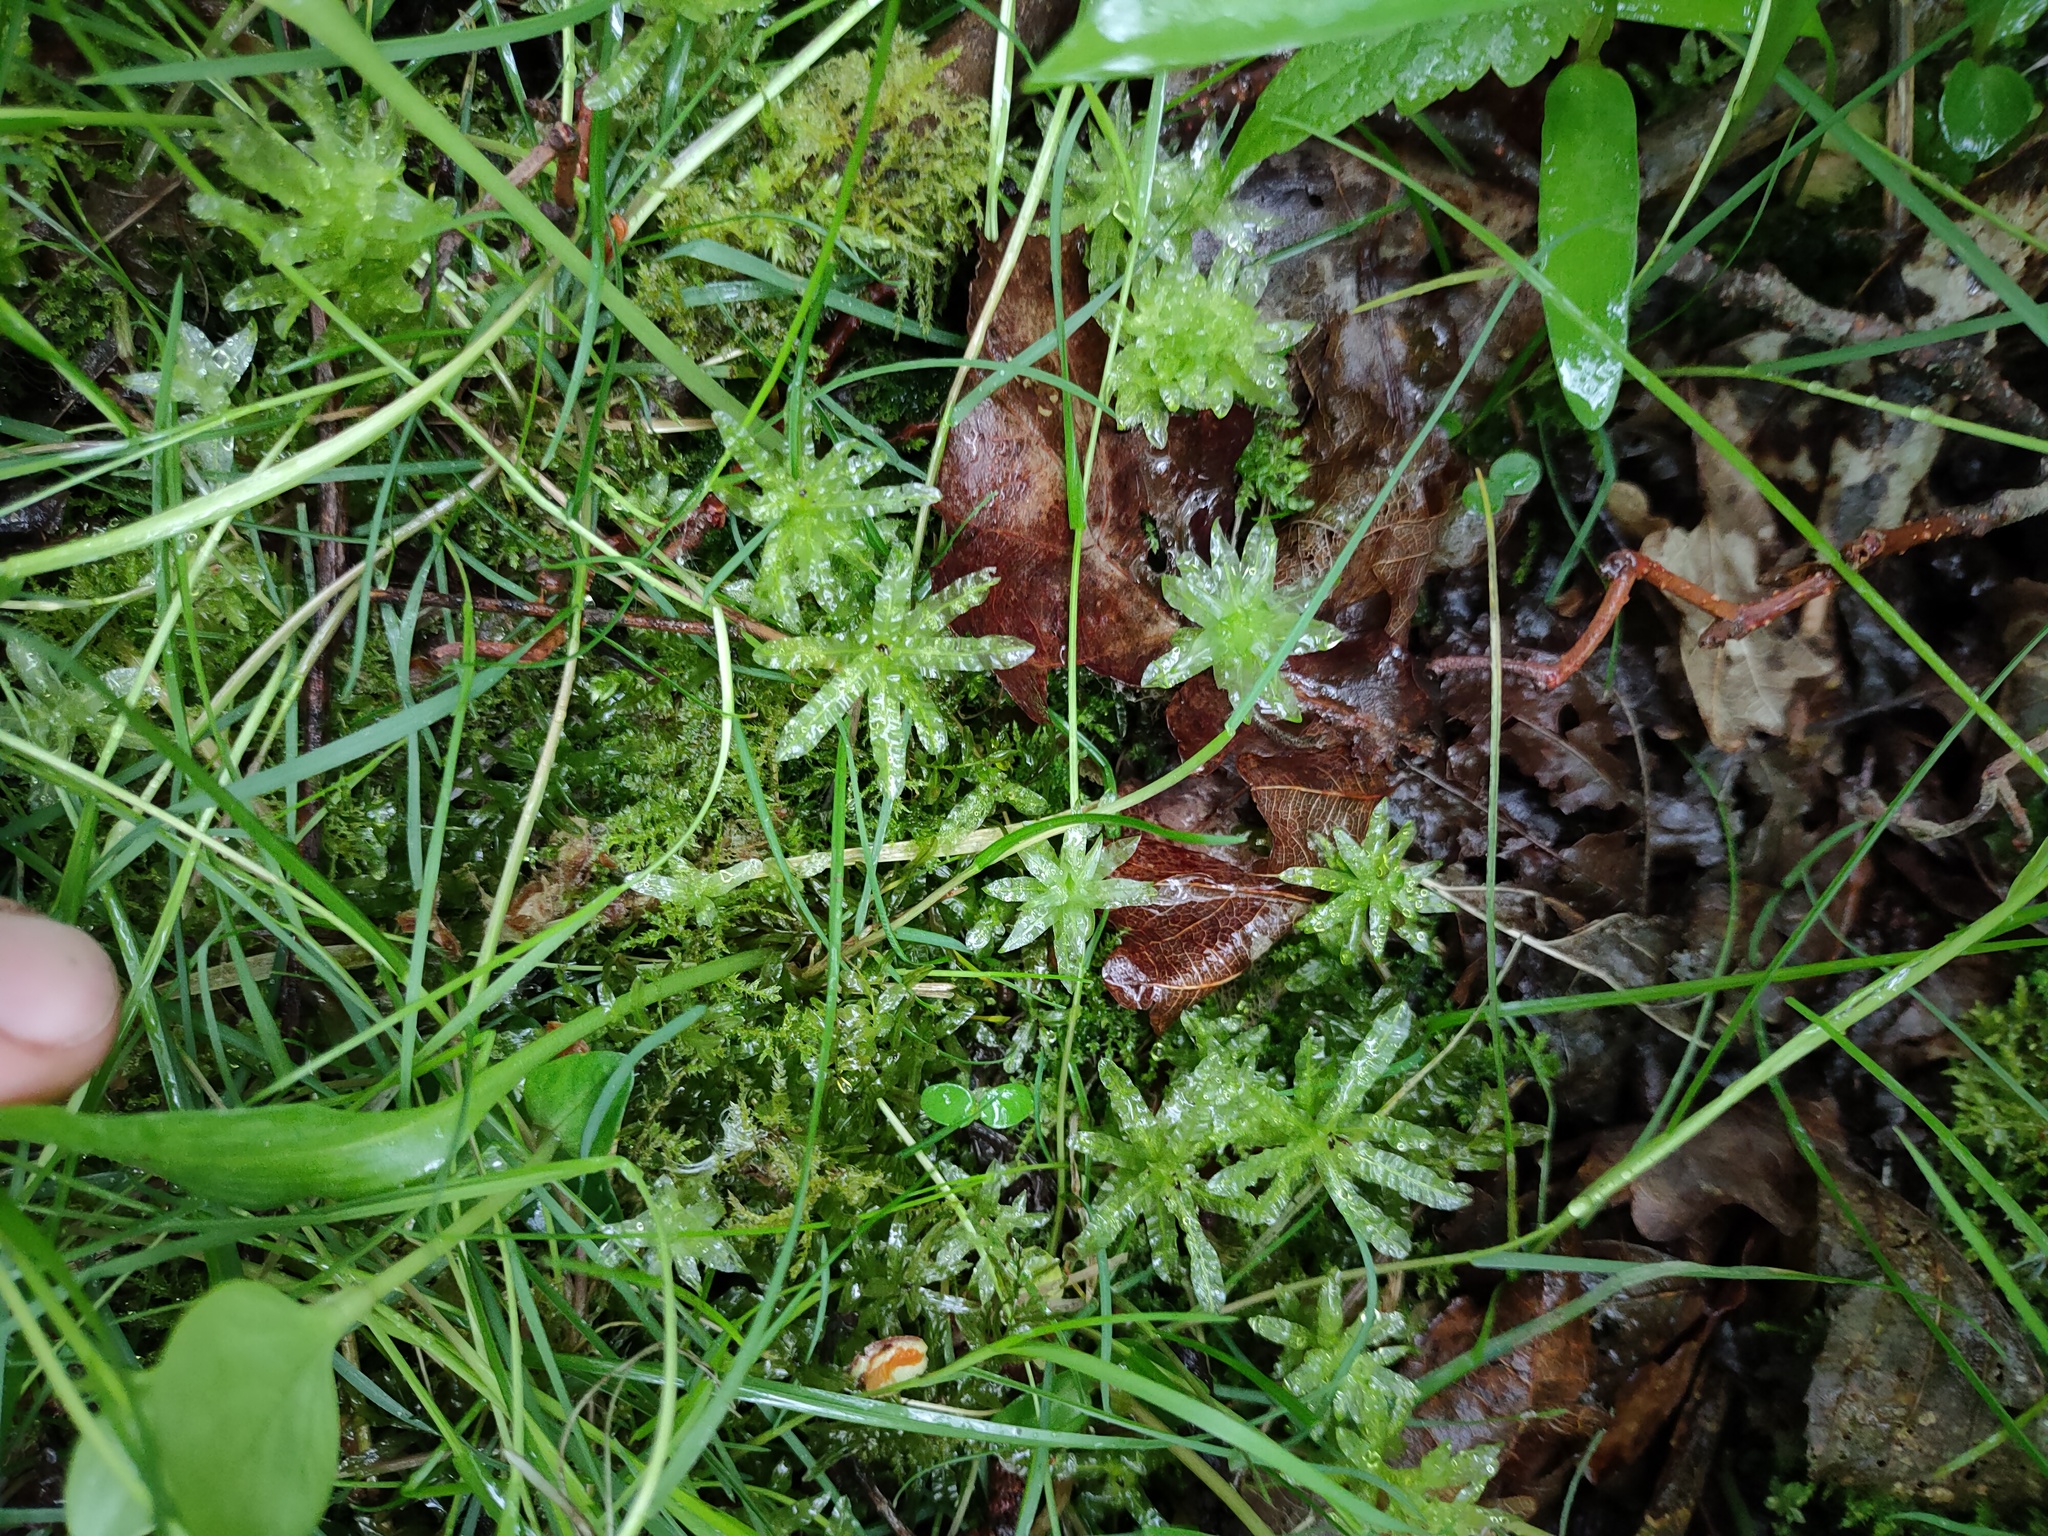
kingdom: Plantae
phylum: Bryophyta
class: Bryopsida
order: Bryales
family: Mniaceae
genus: Plagiomnium
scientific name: Plagiomnium undulatum
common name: Hart's-tongue thyme-moss
